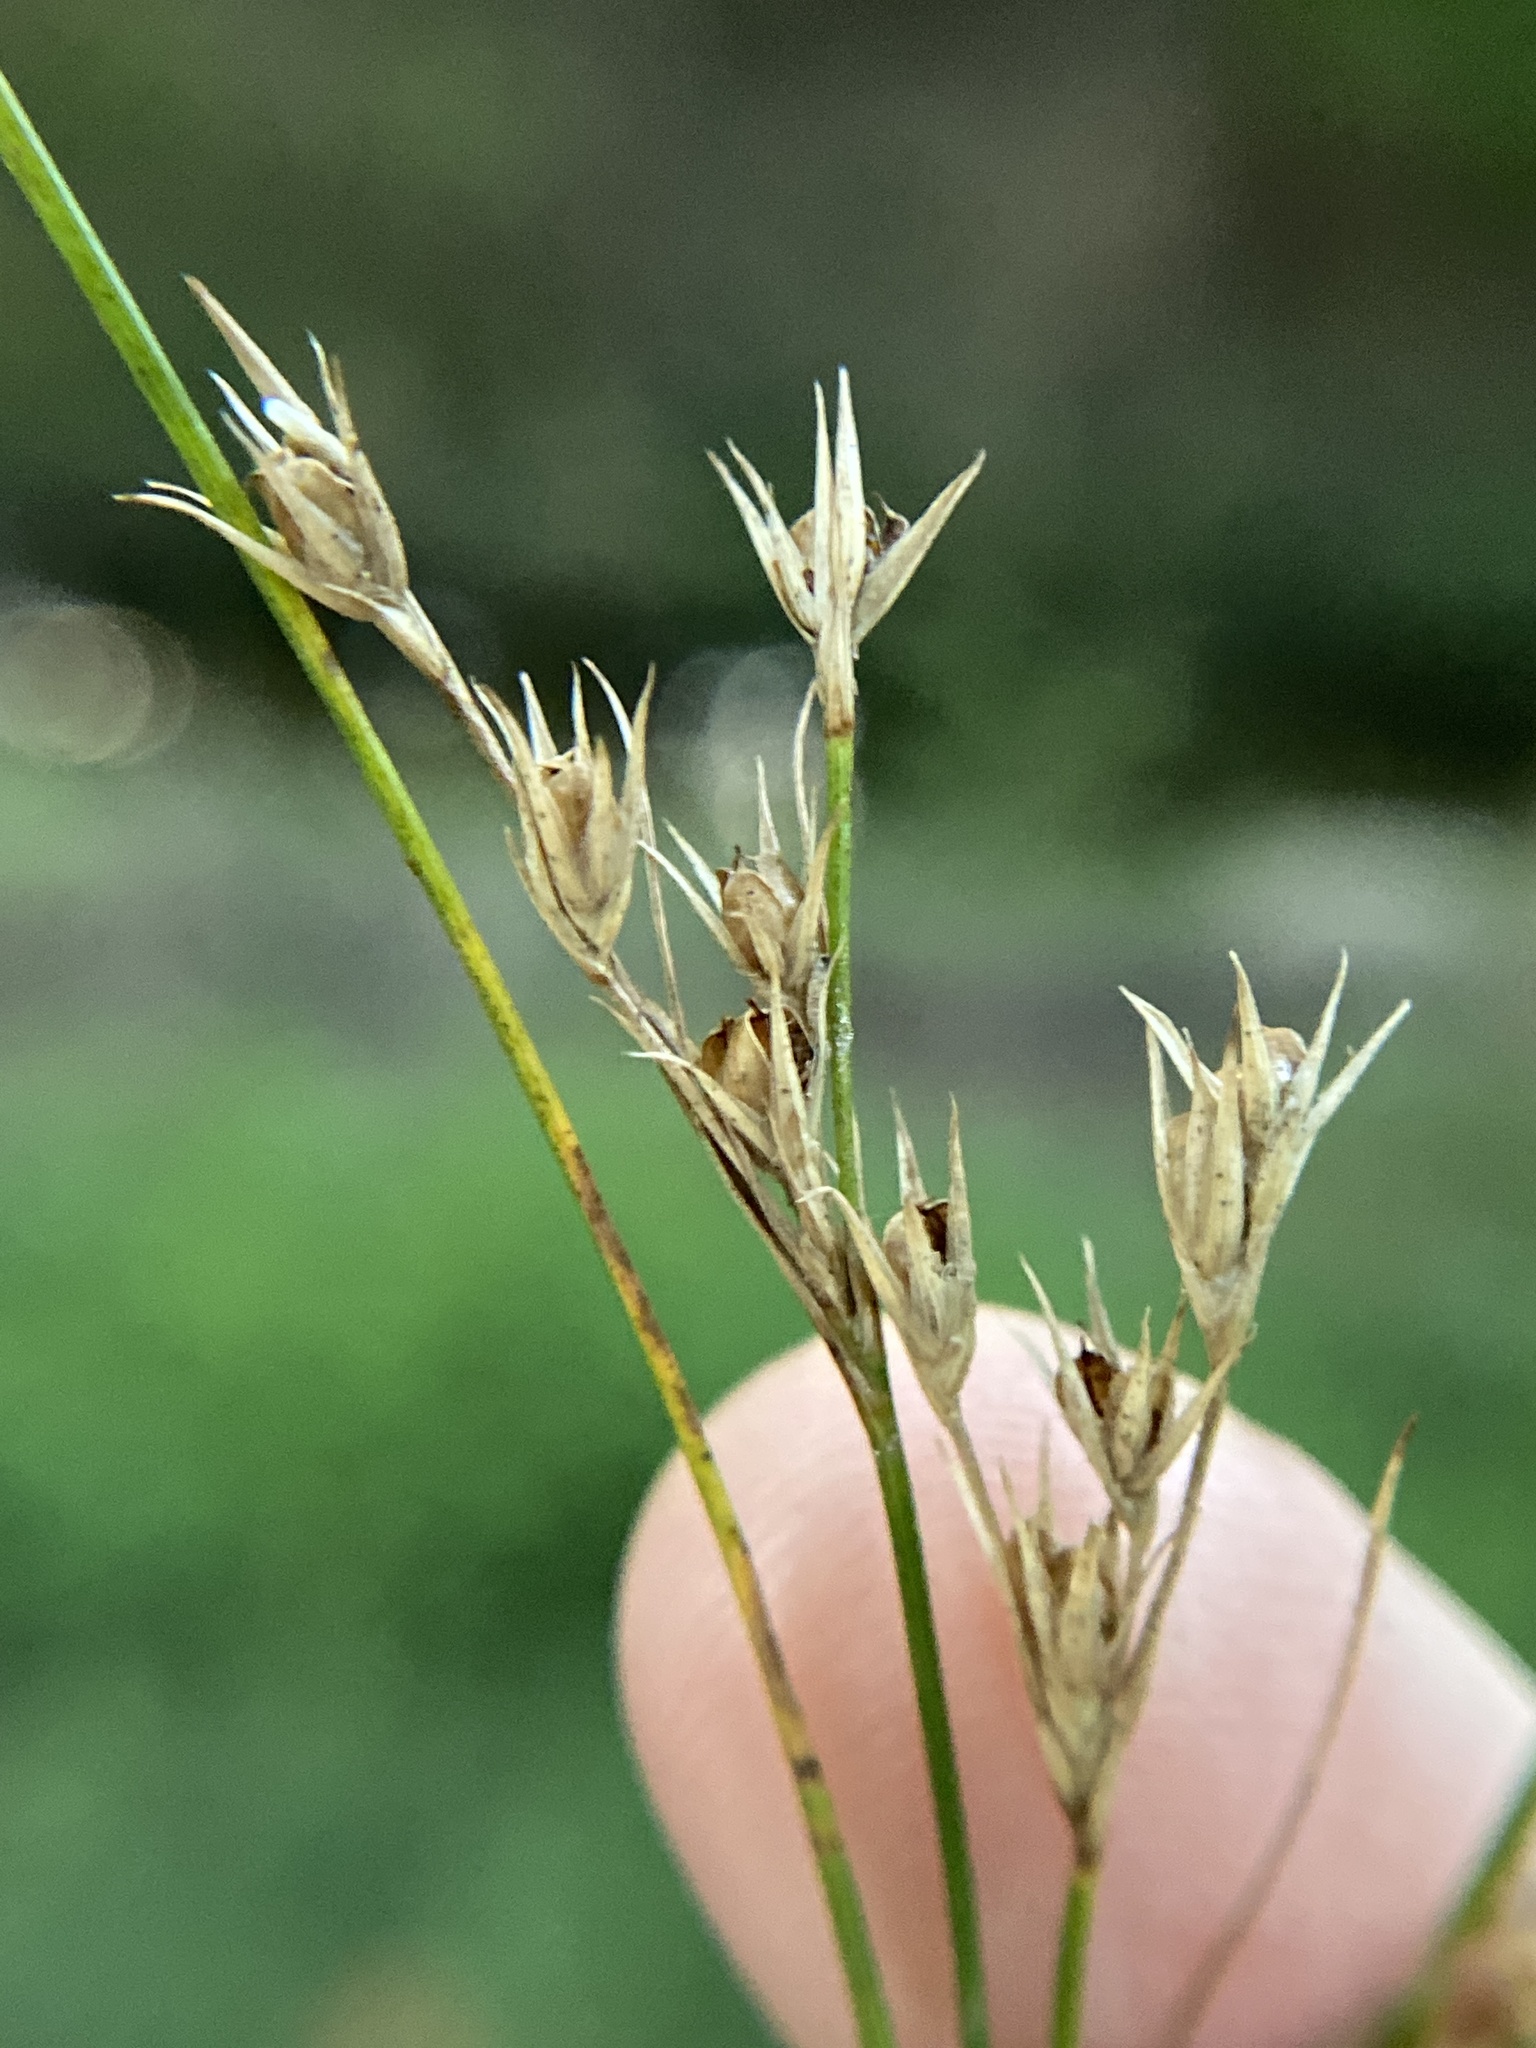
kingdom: Plantae
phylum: Tracheophyta
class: Liliopsida
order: Poales
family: Juncaceae
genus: Juncus
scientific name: Juncus tenuis
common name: Slender rush
